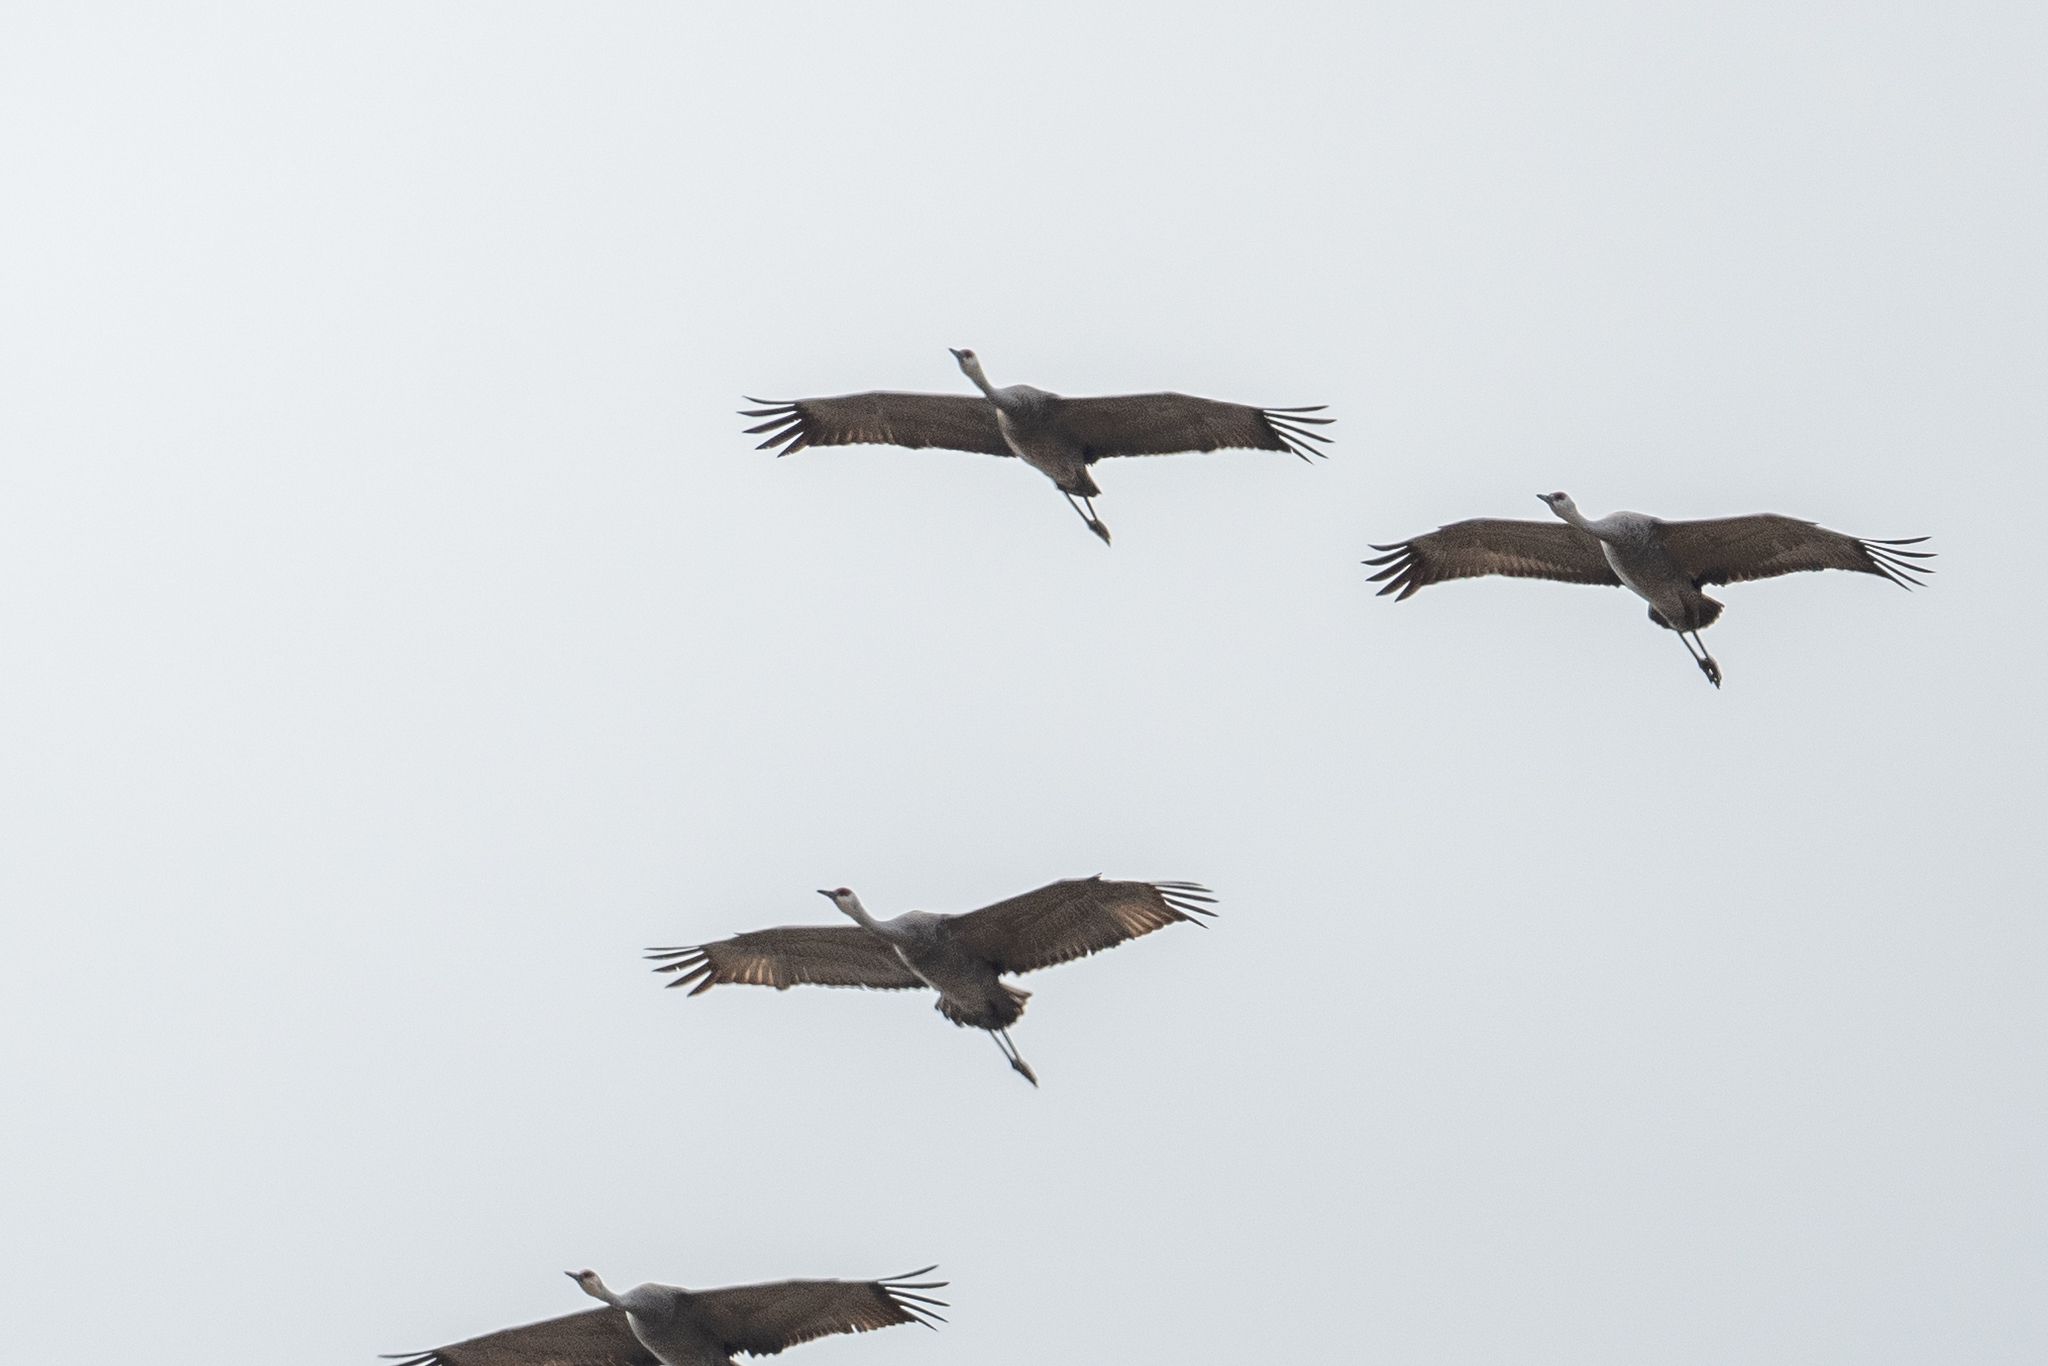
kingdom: Animalia
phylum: Chordata
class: Aves
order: Gruiformes
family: Gruidae
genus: Grus
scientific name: Grus canadensis
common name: Sandhill crane
